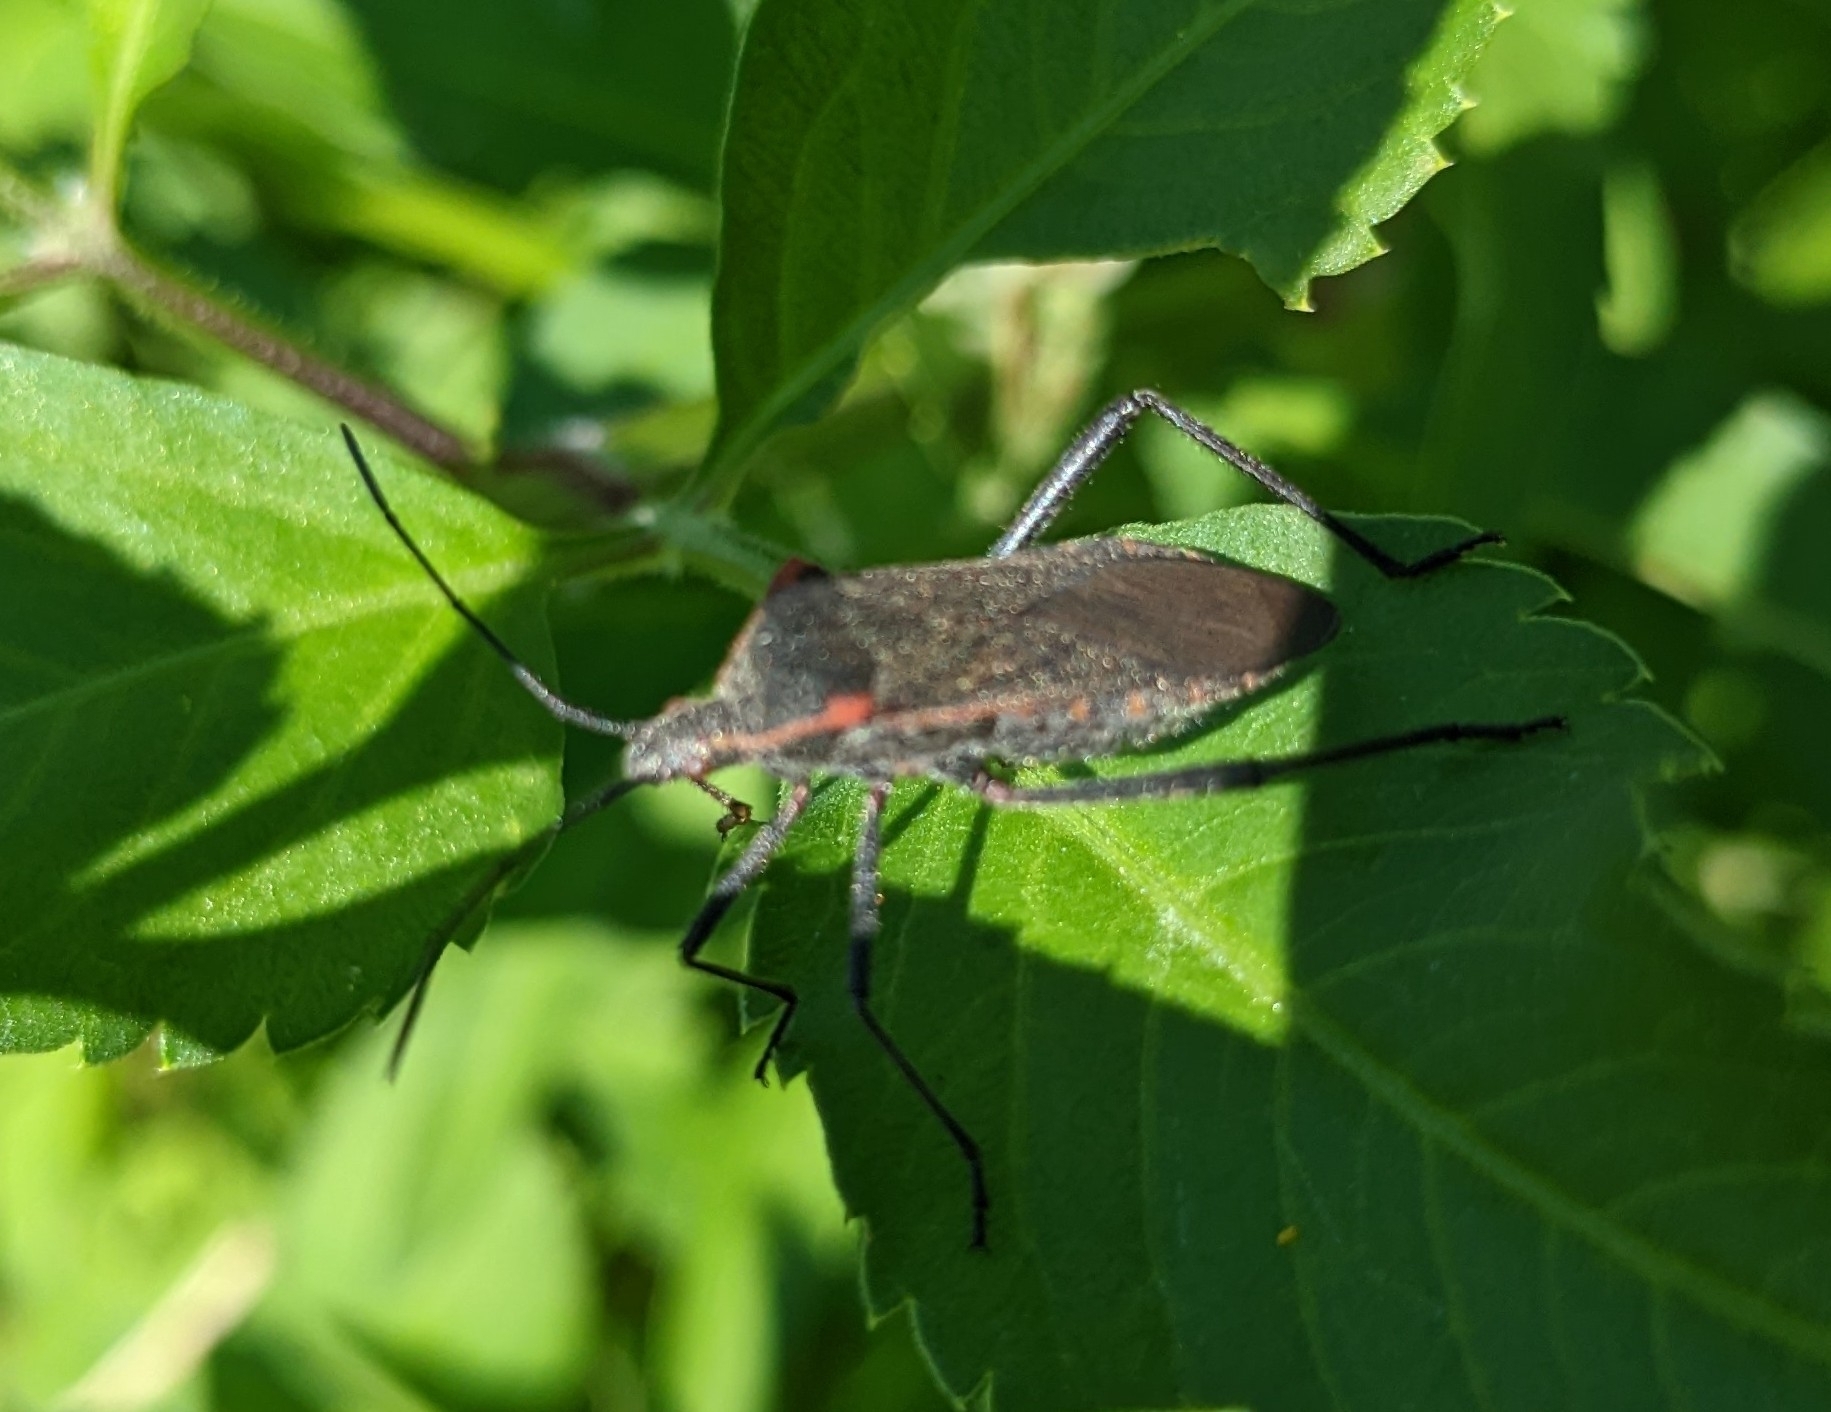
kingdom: Animalia
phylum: Arthropoda
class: Insecta
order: Hemiptera
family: Coreidae
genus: Phthiacnemia
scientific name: Phthiacnemia picta
